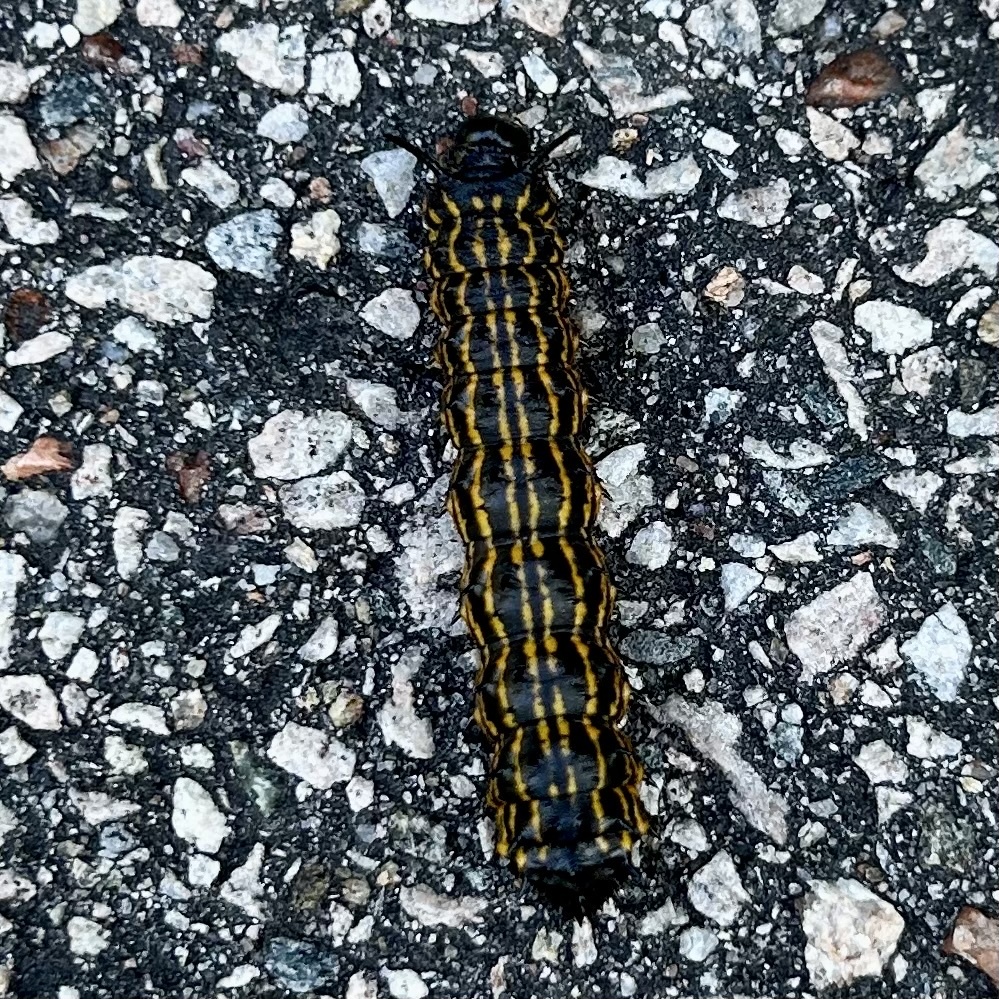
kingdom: Animalia
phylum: Arthropoda
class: Insecta
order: Lepidoptera
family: Saturniidae
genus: Anisota
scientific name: Anisota senatoria
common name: Orange-striped oakworm moth
